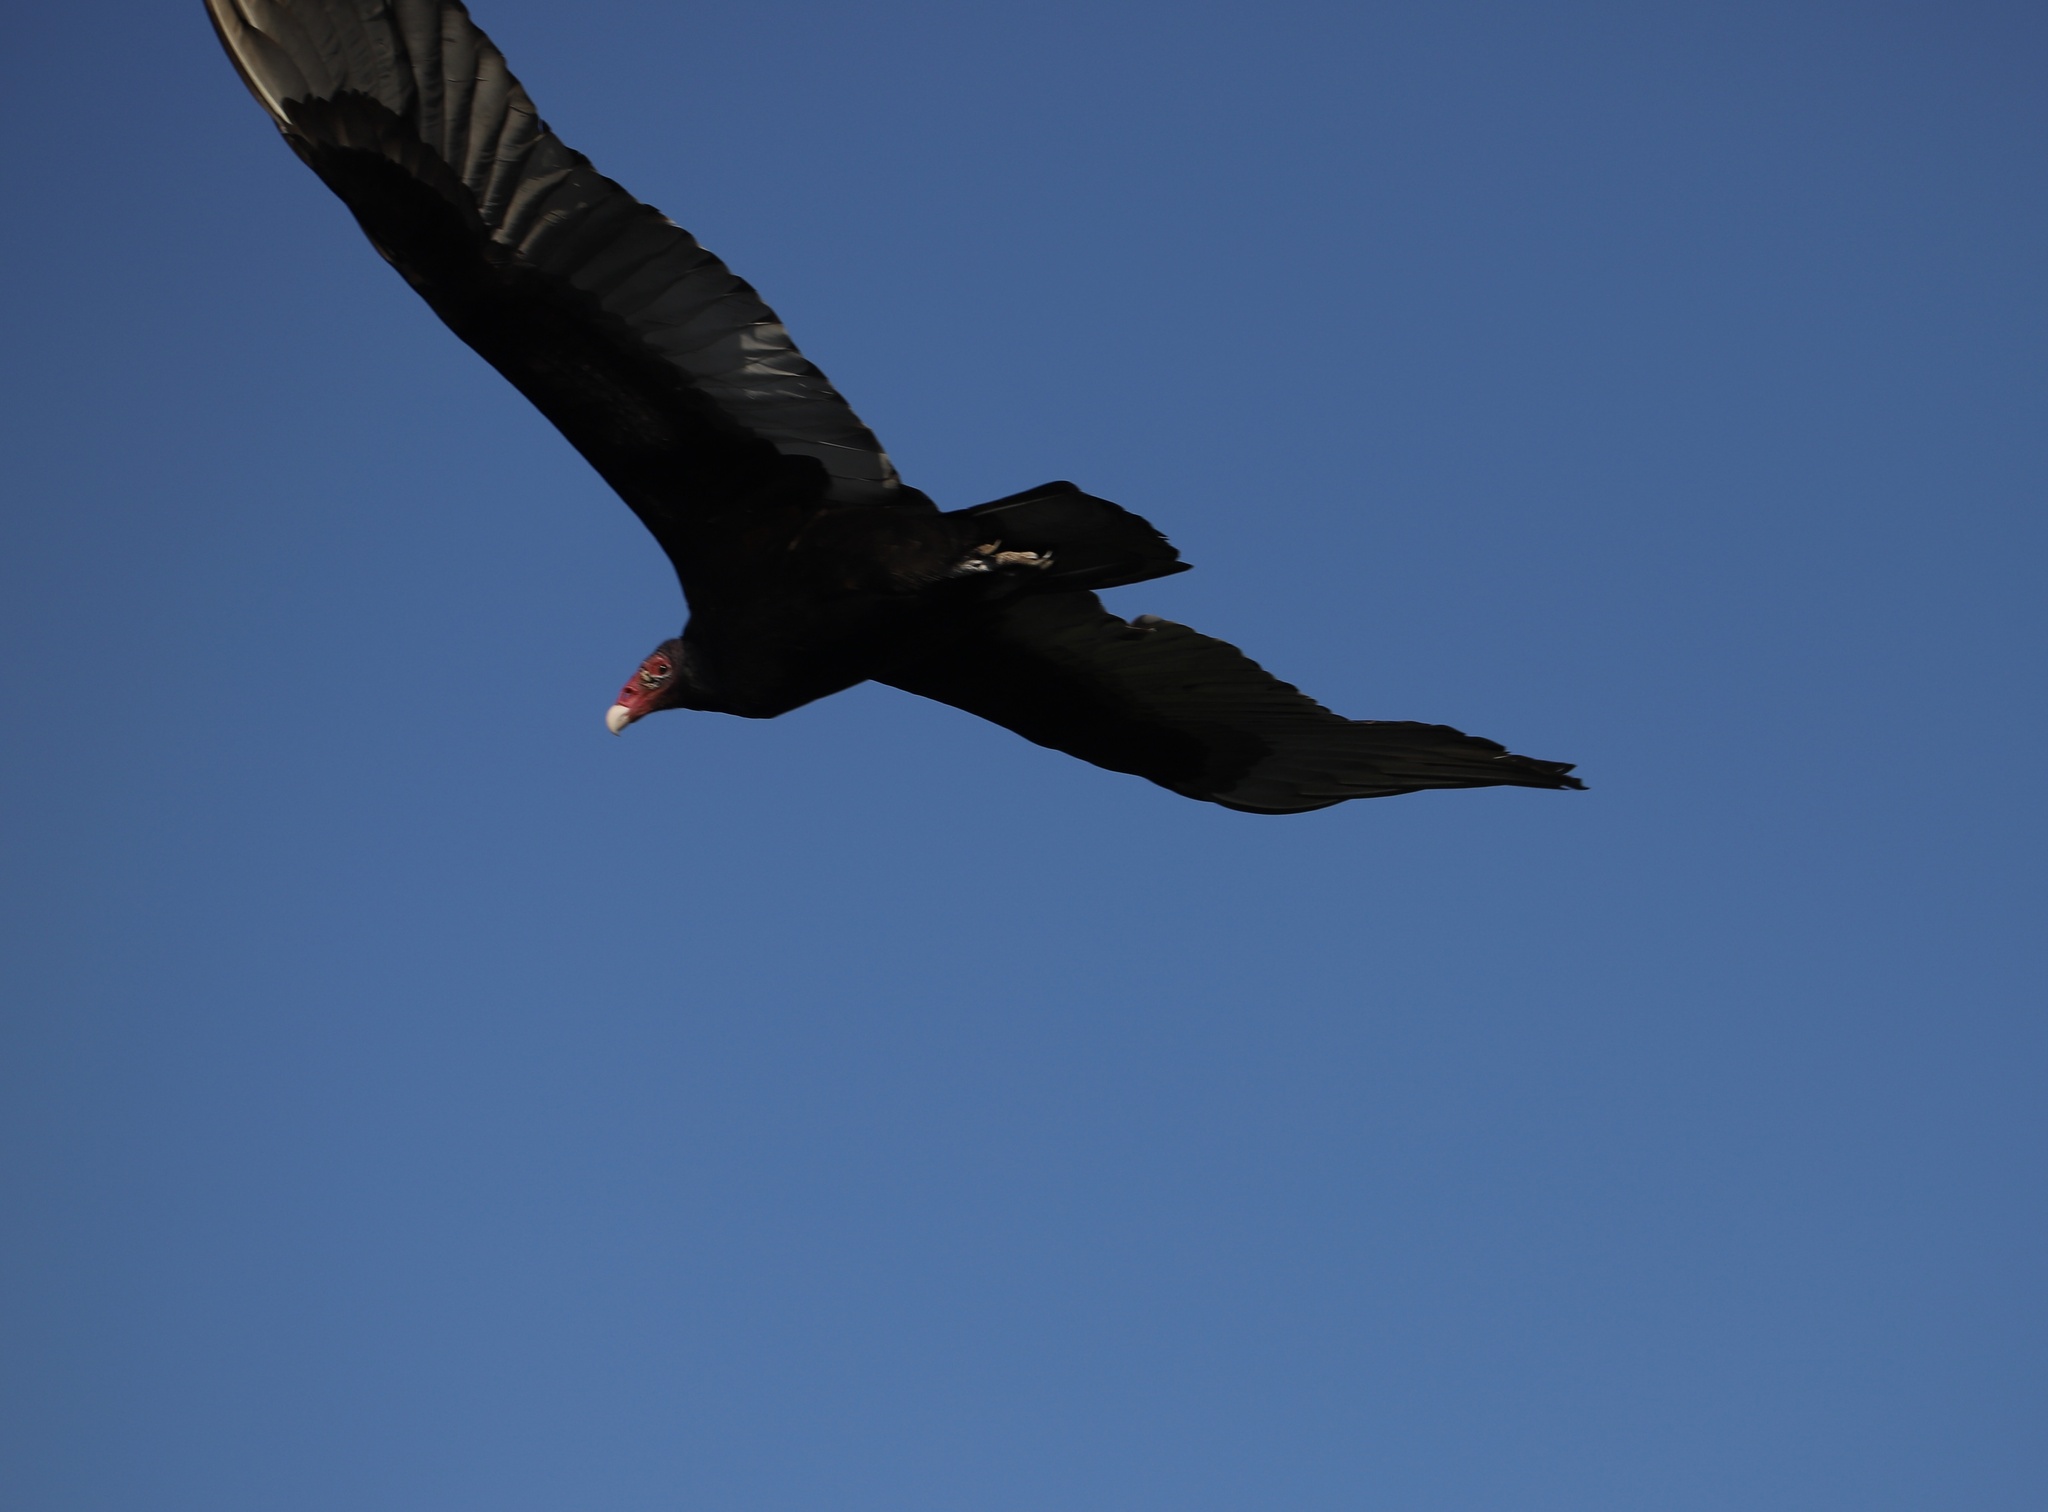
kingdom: Animalia
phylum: Chordata
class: Aves
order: Accipitriformes
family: Cathartidae
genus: Cathartes
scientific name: Cathartes aura
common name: Turkey vulture
